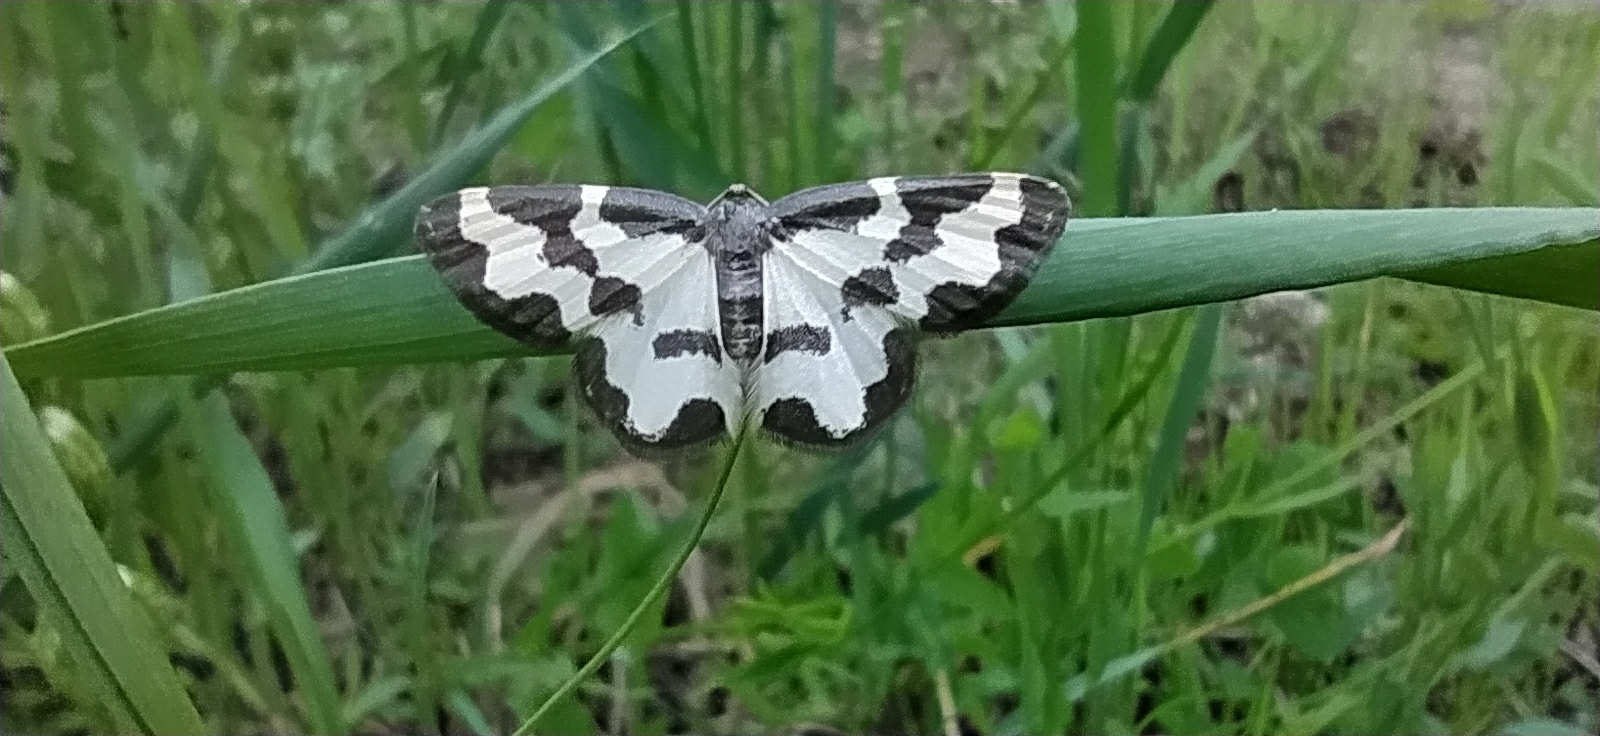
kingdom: Animalia
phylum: Arthropoda
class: Insecta
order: Lepidoptera
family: Geometridae
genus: Lomaspilis
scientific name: Lomaspilis marginata
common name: Clouded border
